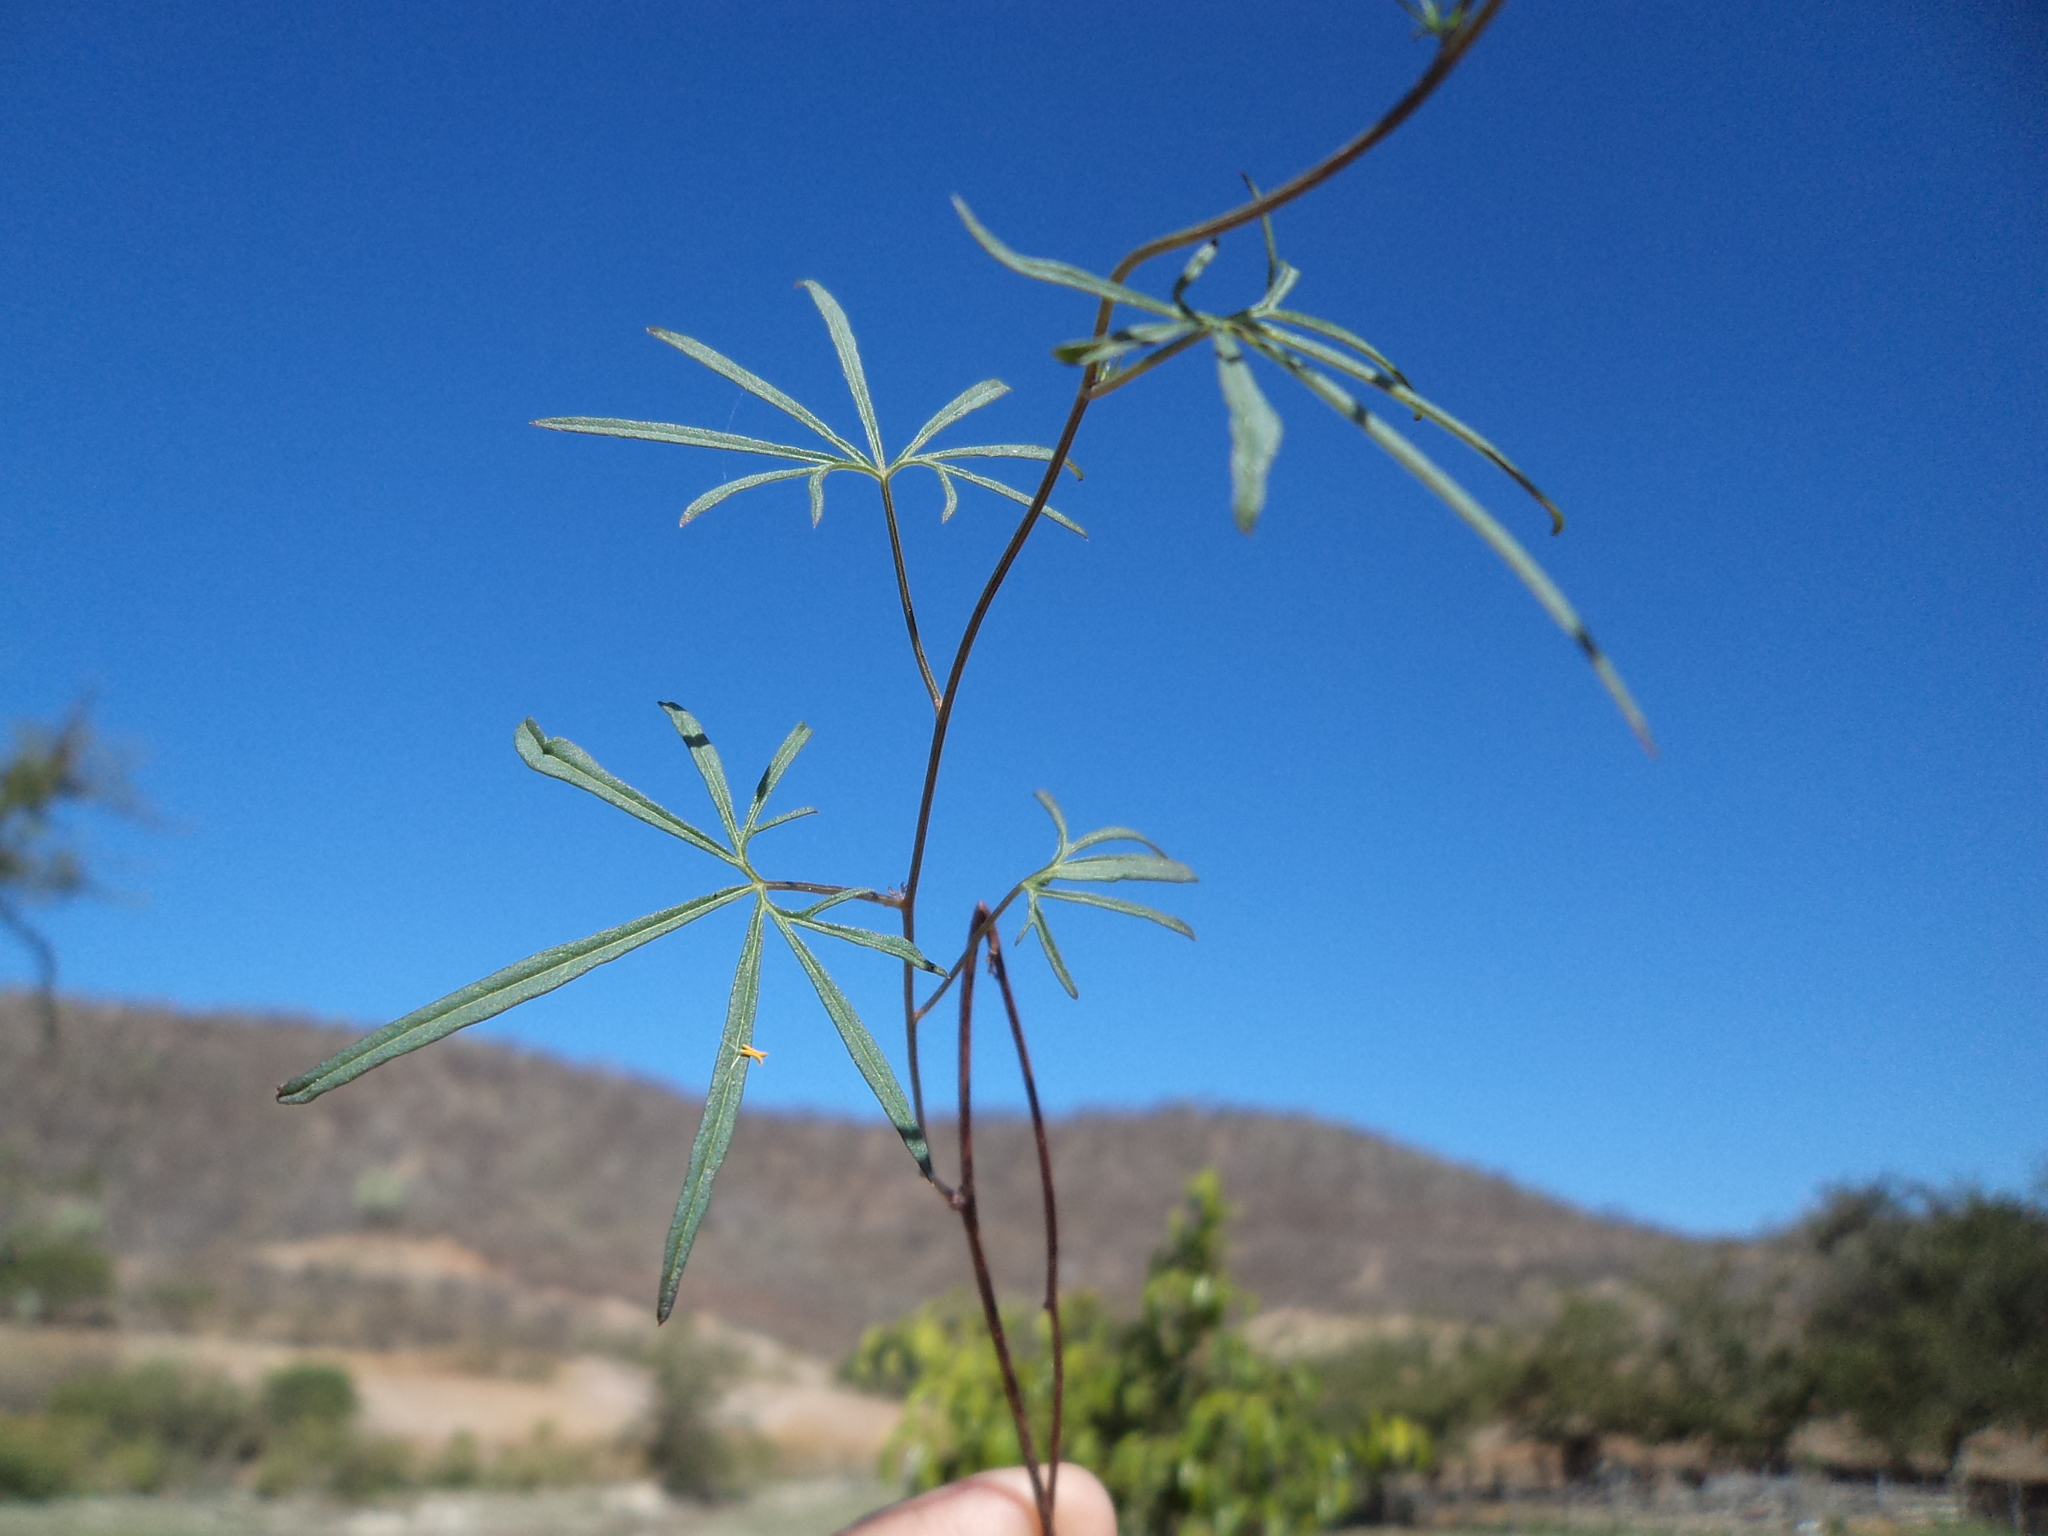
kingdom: Plantae
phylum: Tracheophyta
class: Magnoliopsida
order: Solanales
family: Convolvulaceae
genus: Ipomoea
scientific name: Ipomoea ternifolia
